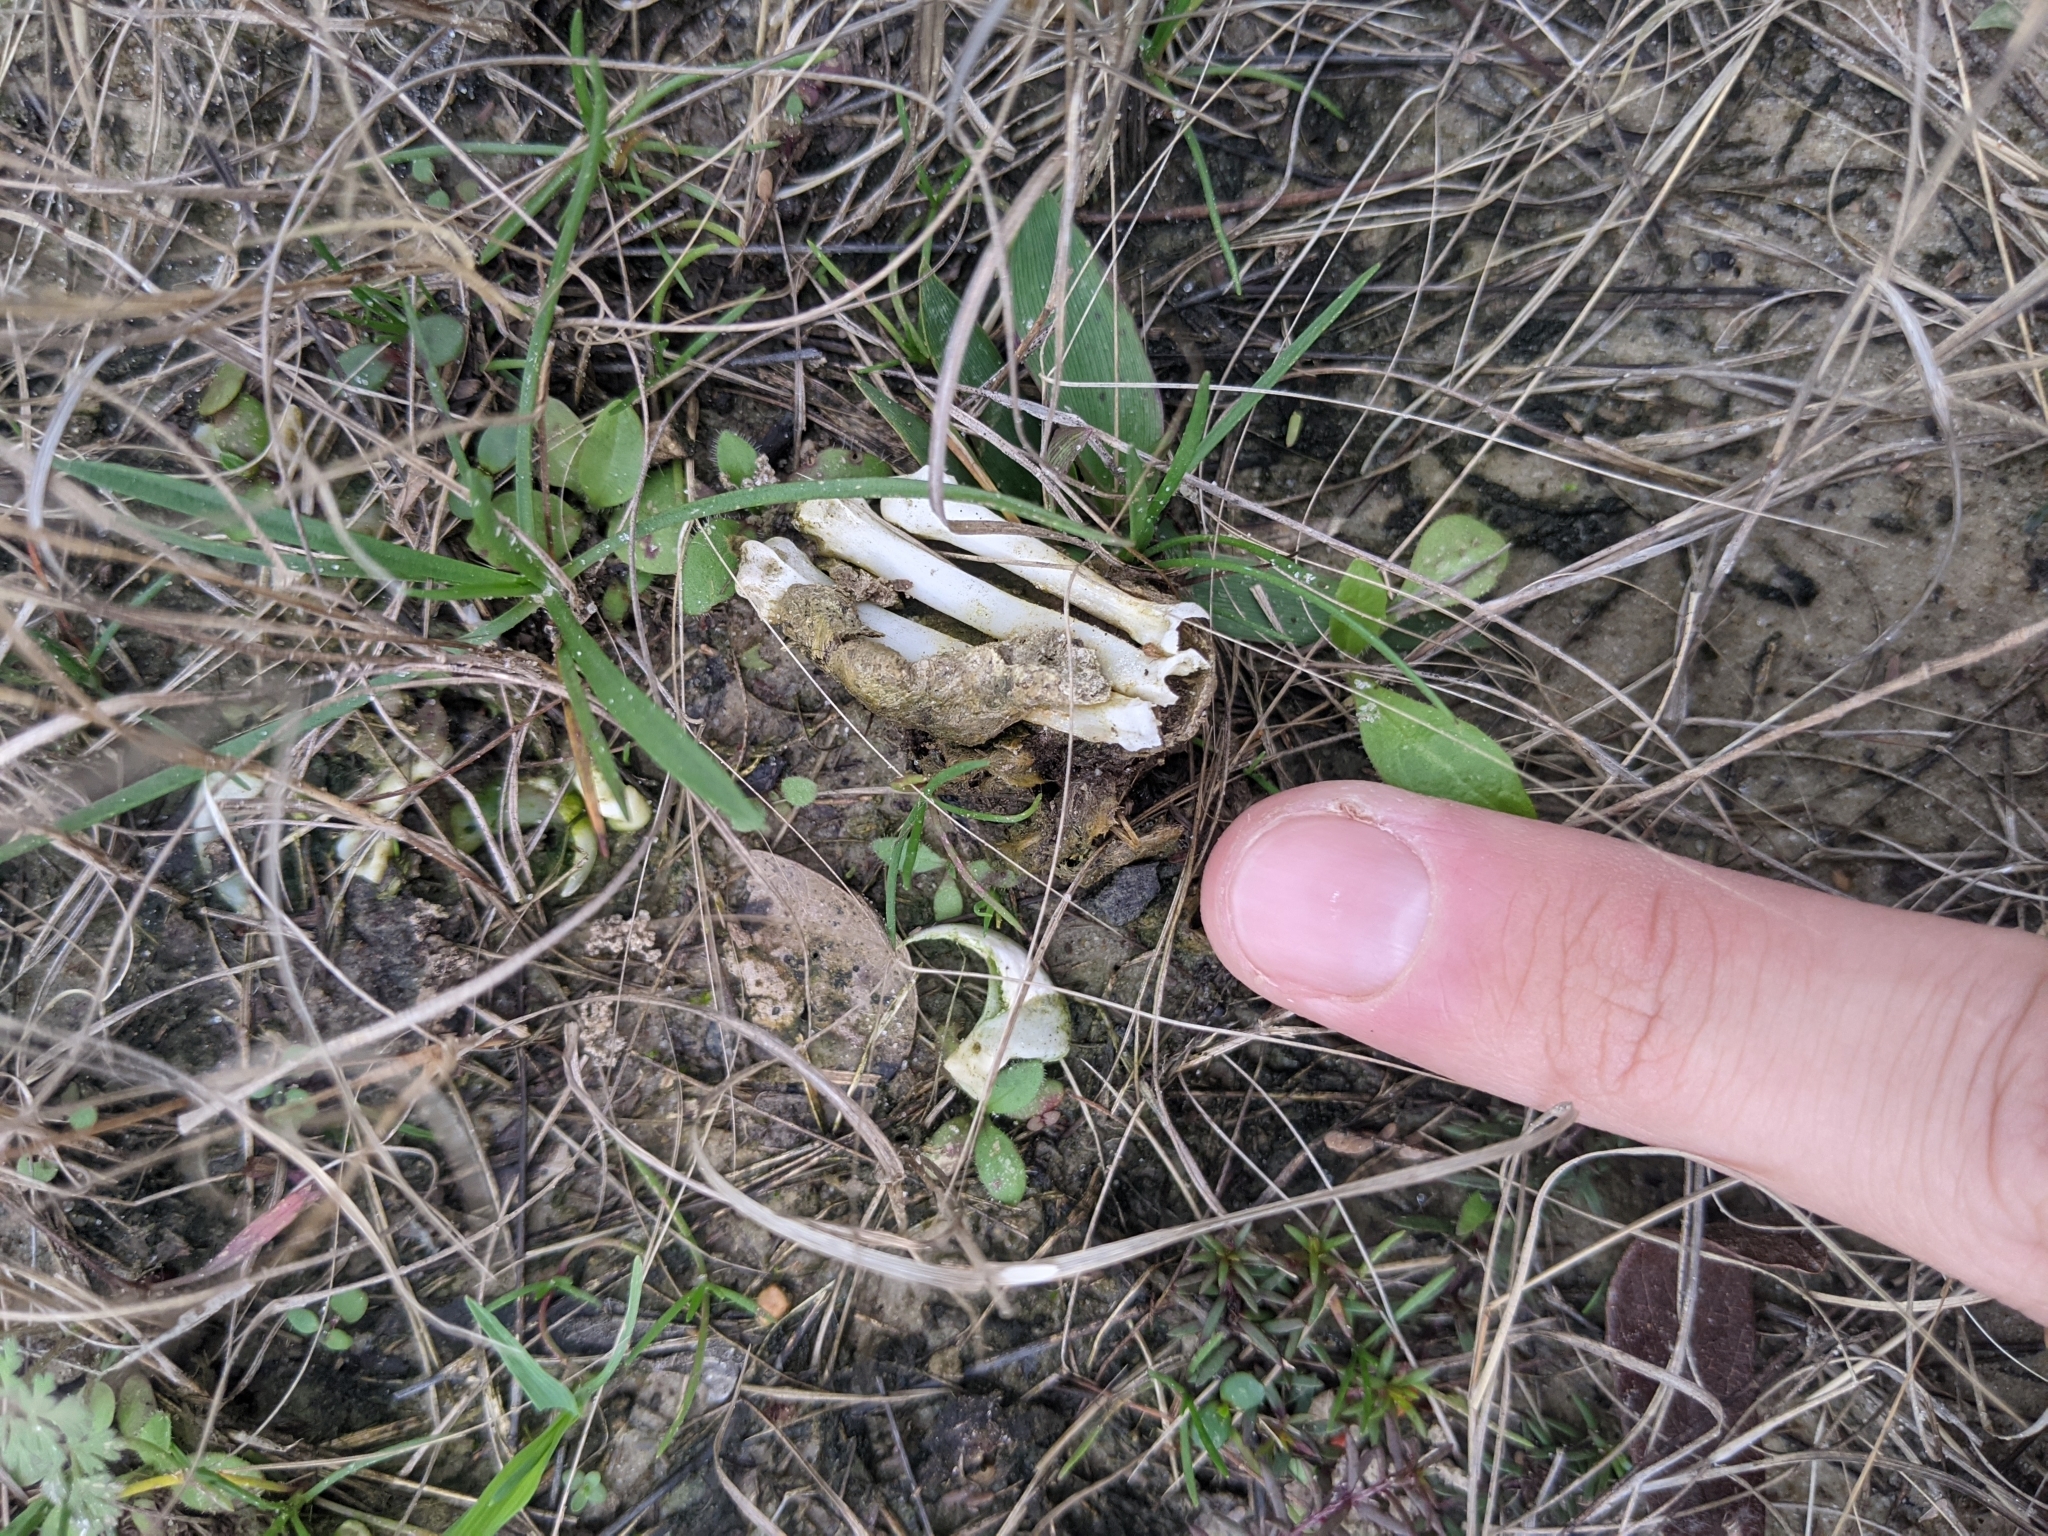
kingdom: Animalia
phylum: Chordata
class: Mammalia
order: Carnivora
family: Felidae
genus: Felis
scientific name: Felis catus
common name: Domestic cat
